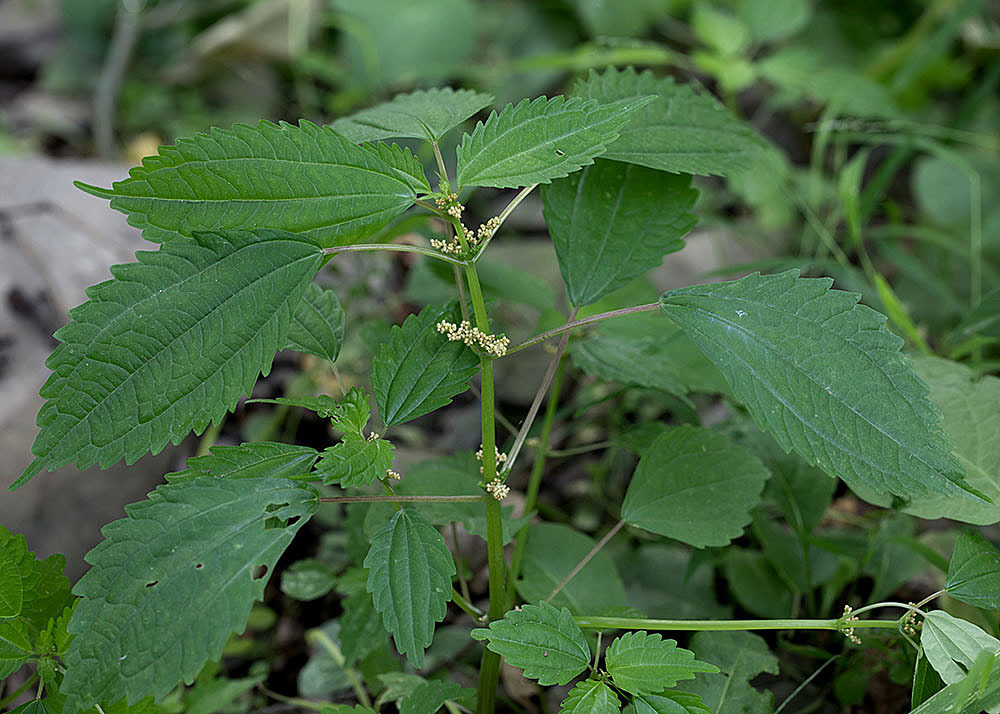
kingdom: Plantae
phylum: Tracheophyta
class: Magnoliopsida
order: Rosales
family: Urticaceae
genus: Pilea
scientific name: Pilea pumila
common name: Clearweed
